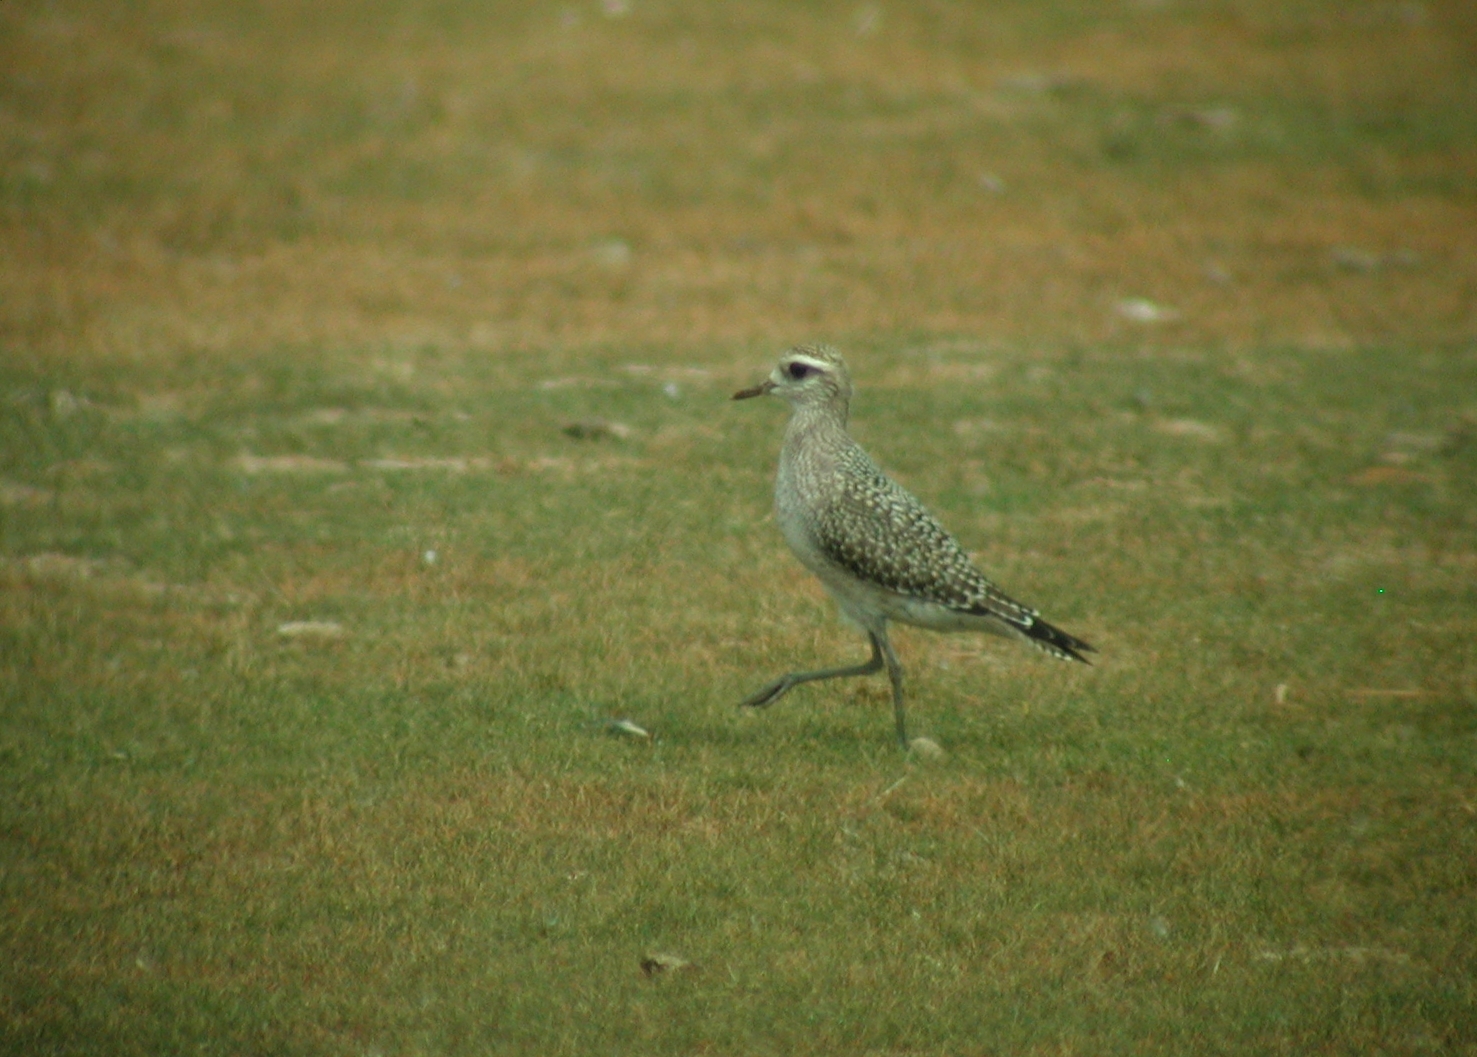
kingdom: Animalia
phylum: Chordata
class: Aves
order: Charadriiformes
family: Charadriidae
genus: Pluvialis
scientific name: Pluvialis dominica
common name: American golden plover
